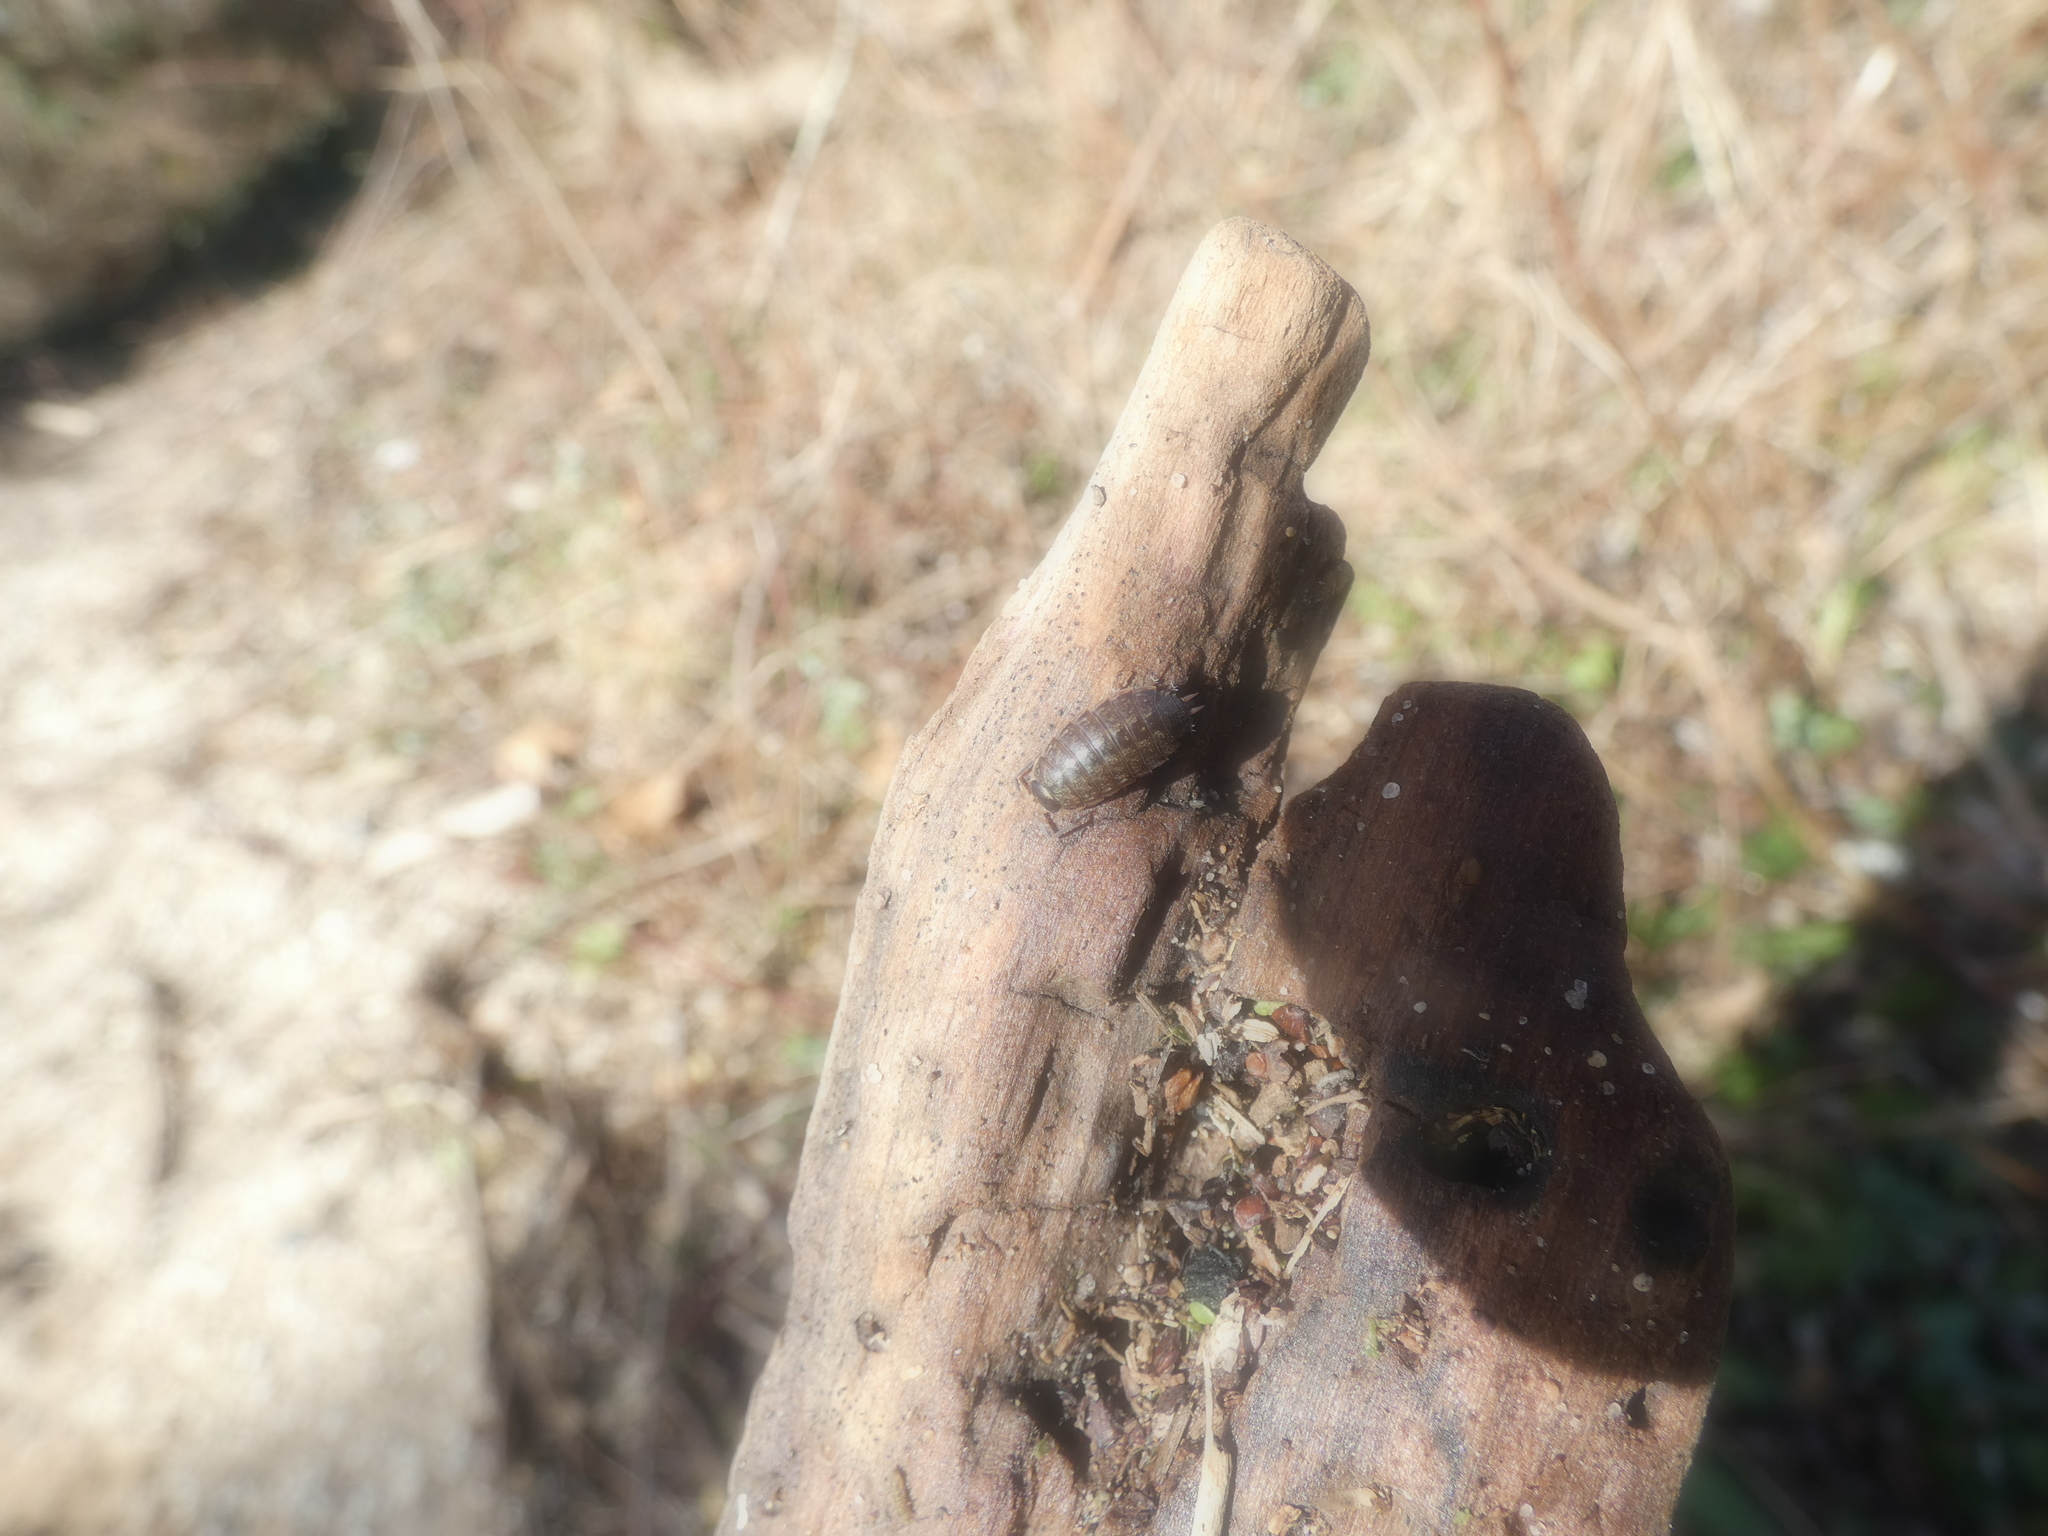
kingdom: Animalia
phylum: Arthropoda
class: Malacostraca
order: Isopoda
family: Philosciidae
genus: Philoscia
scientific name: Philoscia muscorum
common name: Common striped woodlouse
